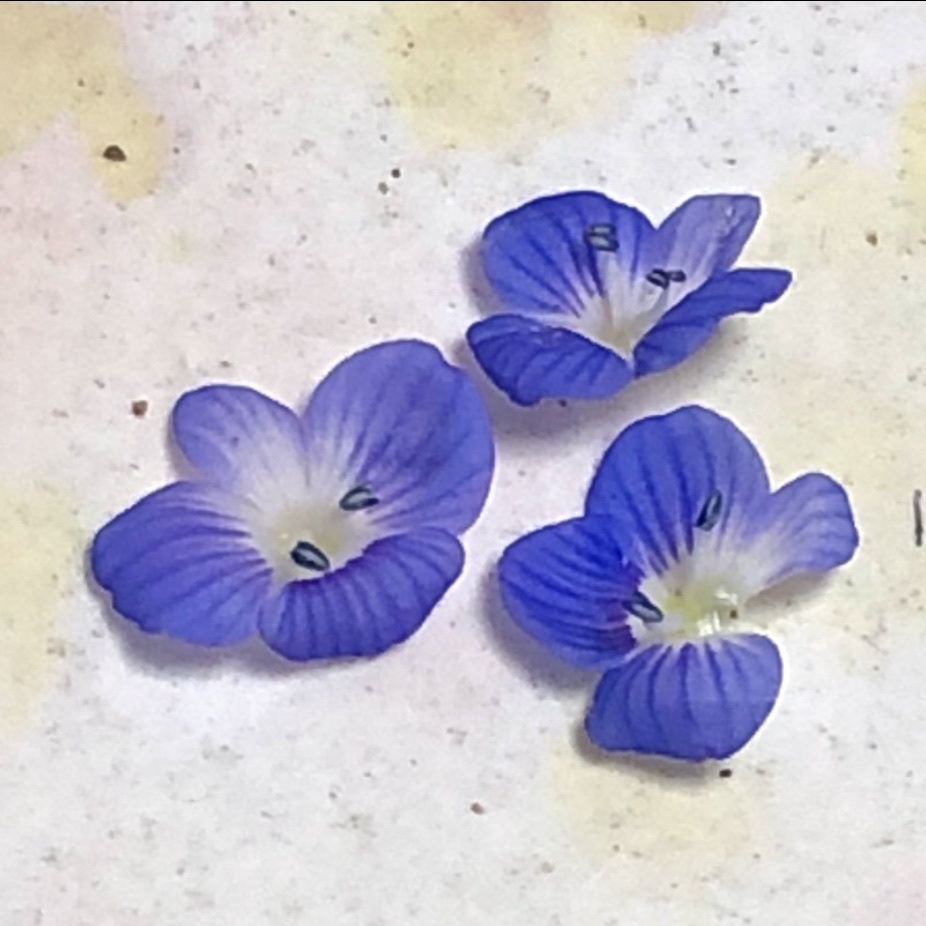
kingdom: Plantae
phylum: Tracheophyta
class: Magnoliopsida
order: Lamiales
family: Plantaginaceae
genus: Veronica
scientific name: Veronica persica
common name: Common field-speedwell
